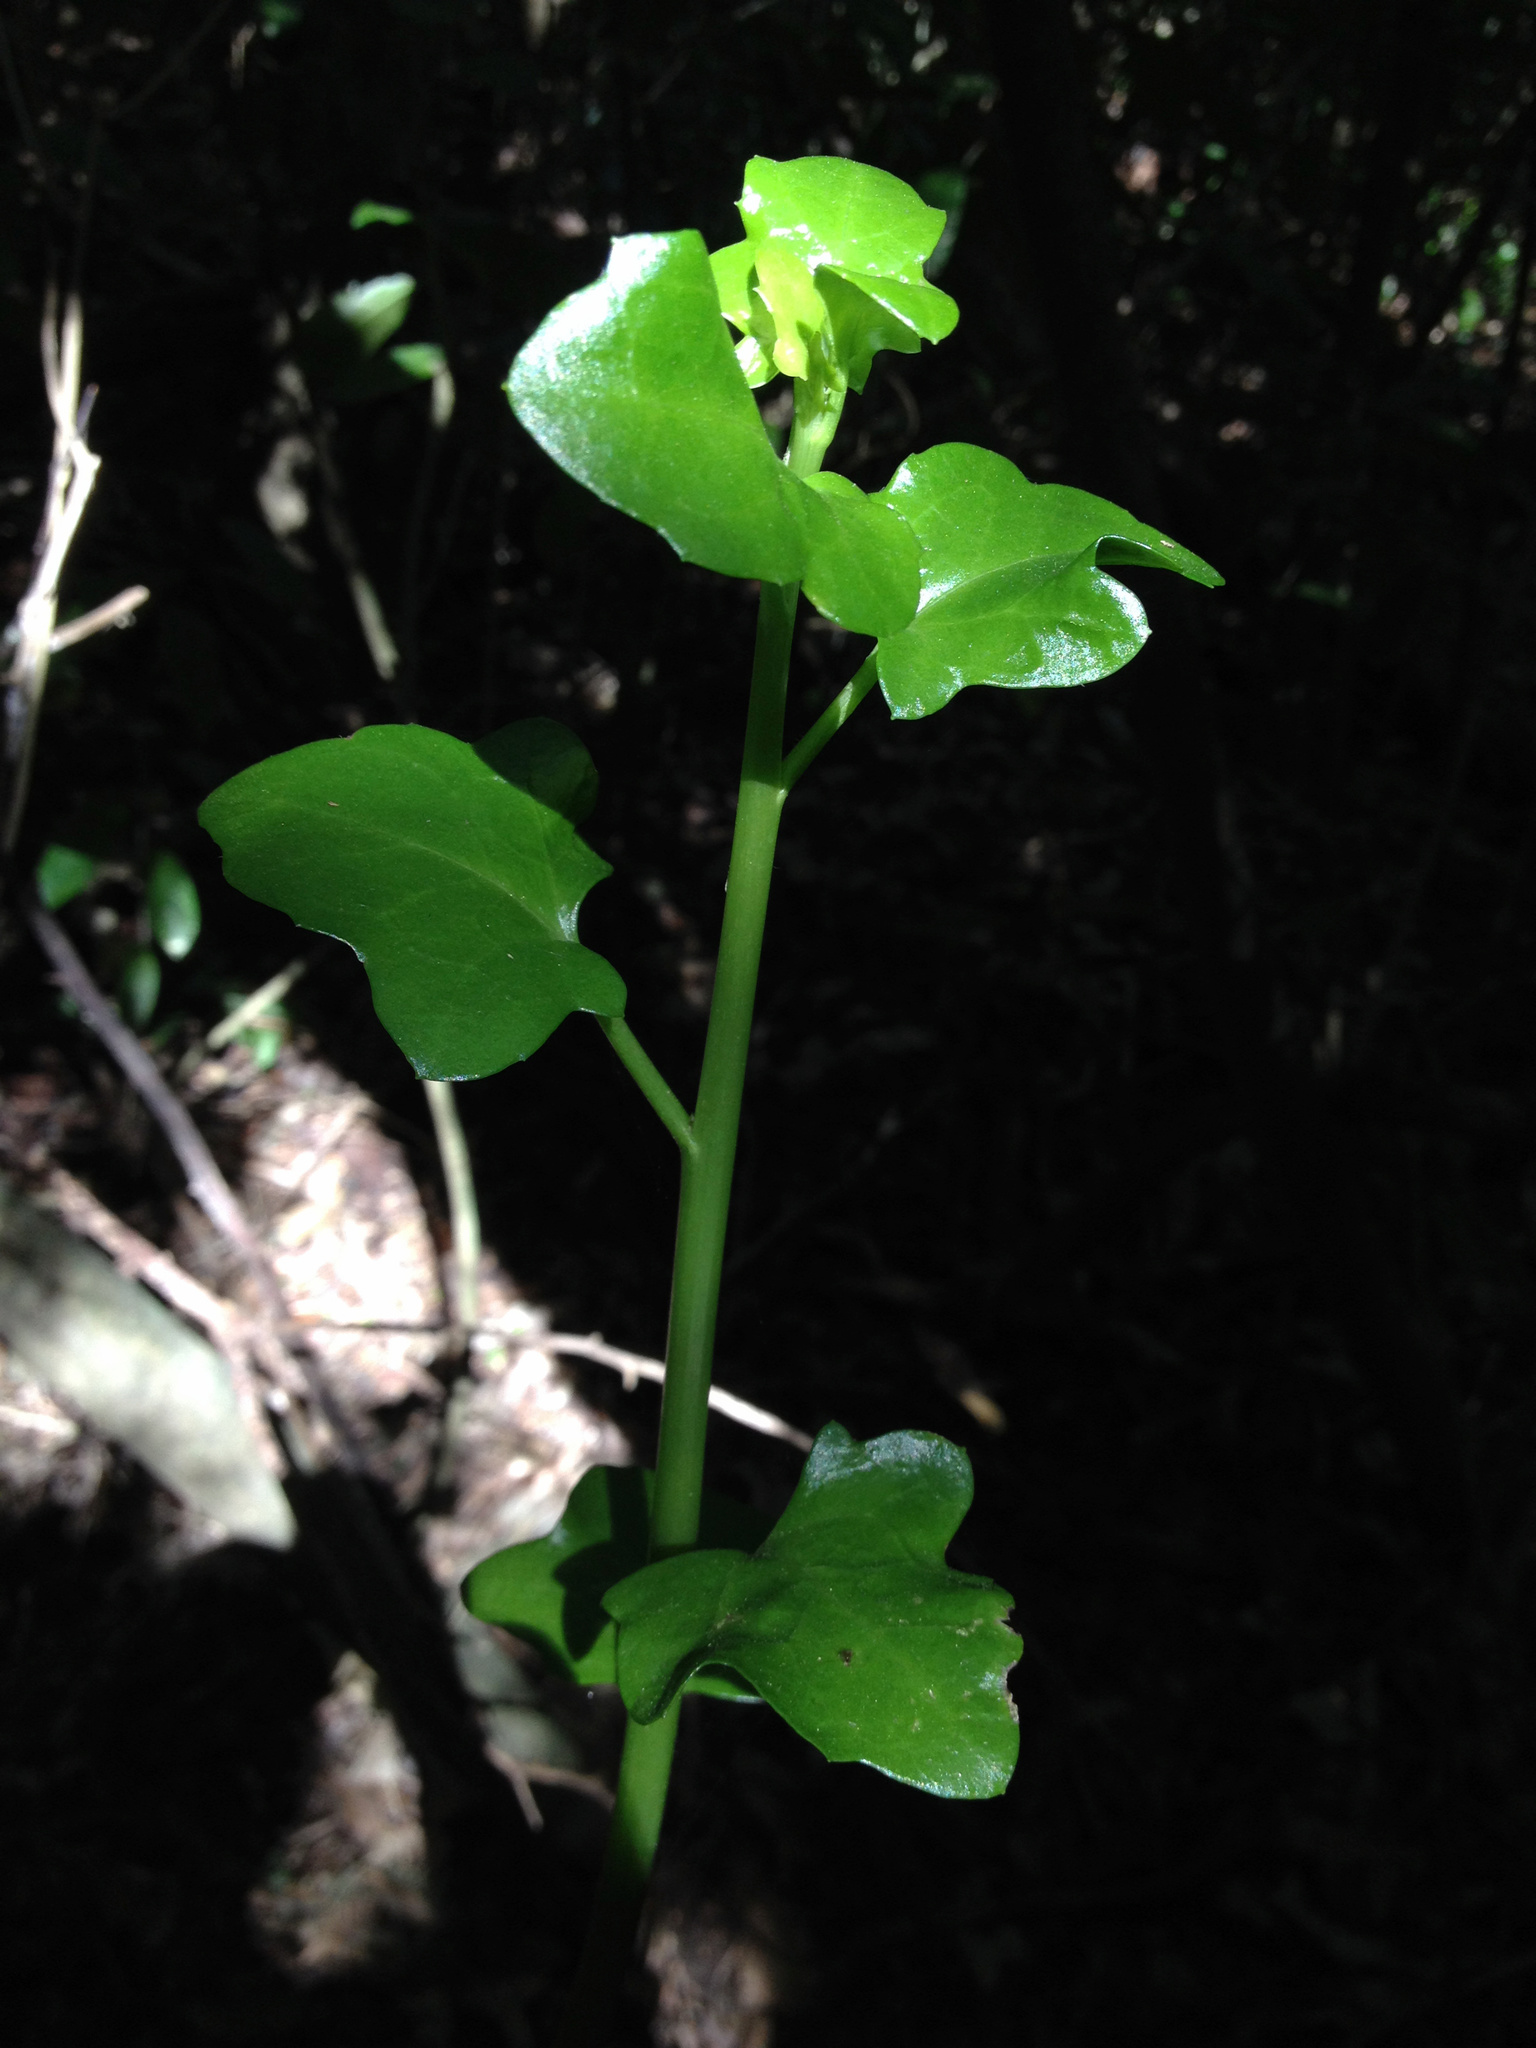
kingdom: Plantae
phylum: Tracheophyta
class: Magnoliopsida
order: Asterales
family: Asteraceae
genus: Senecio
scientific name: Senecio angulatus
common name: Climbing groundsel
